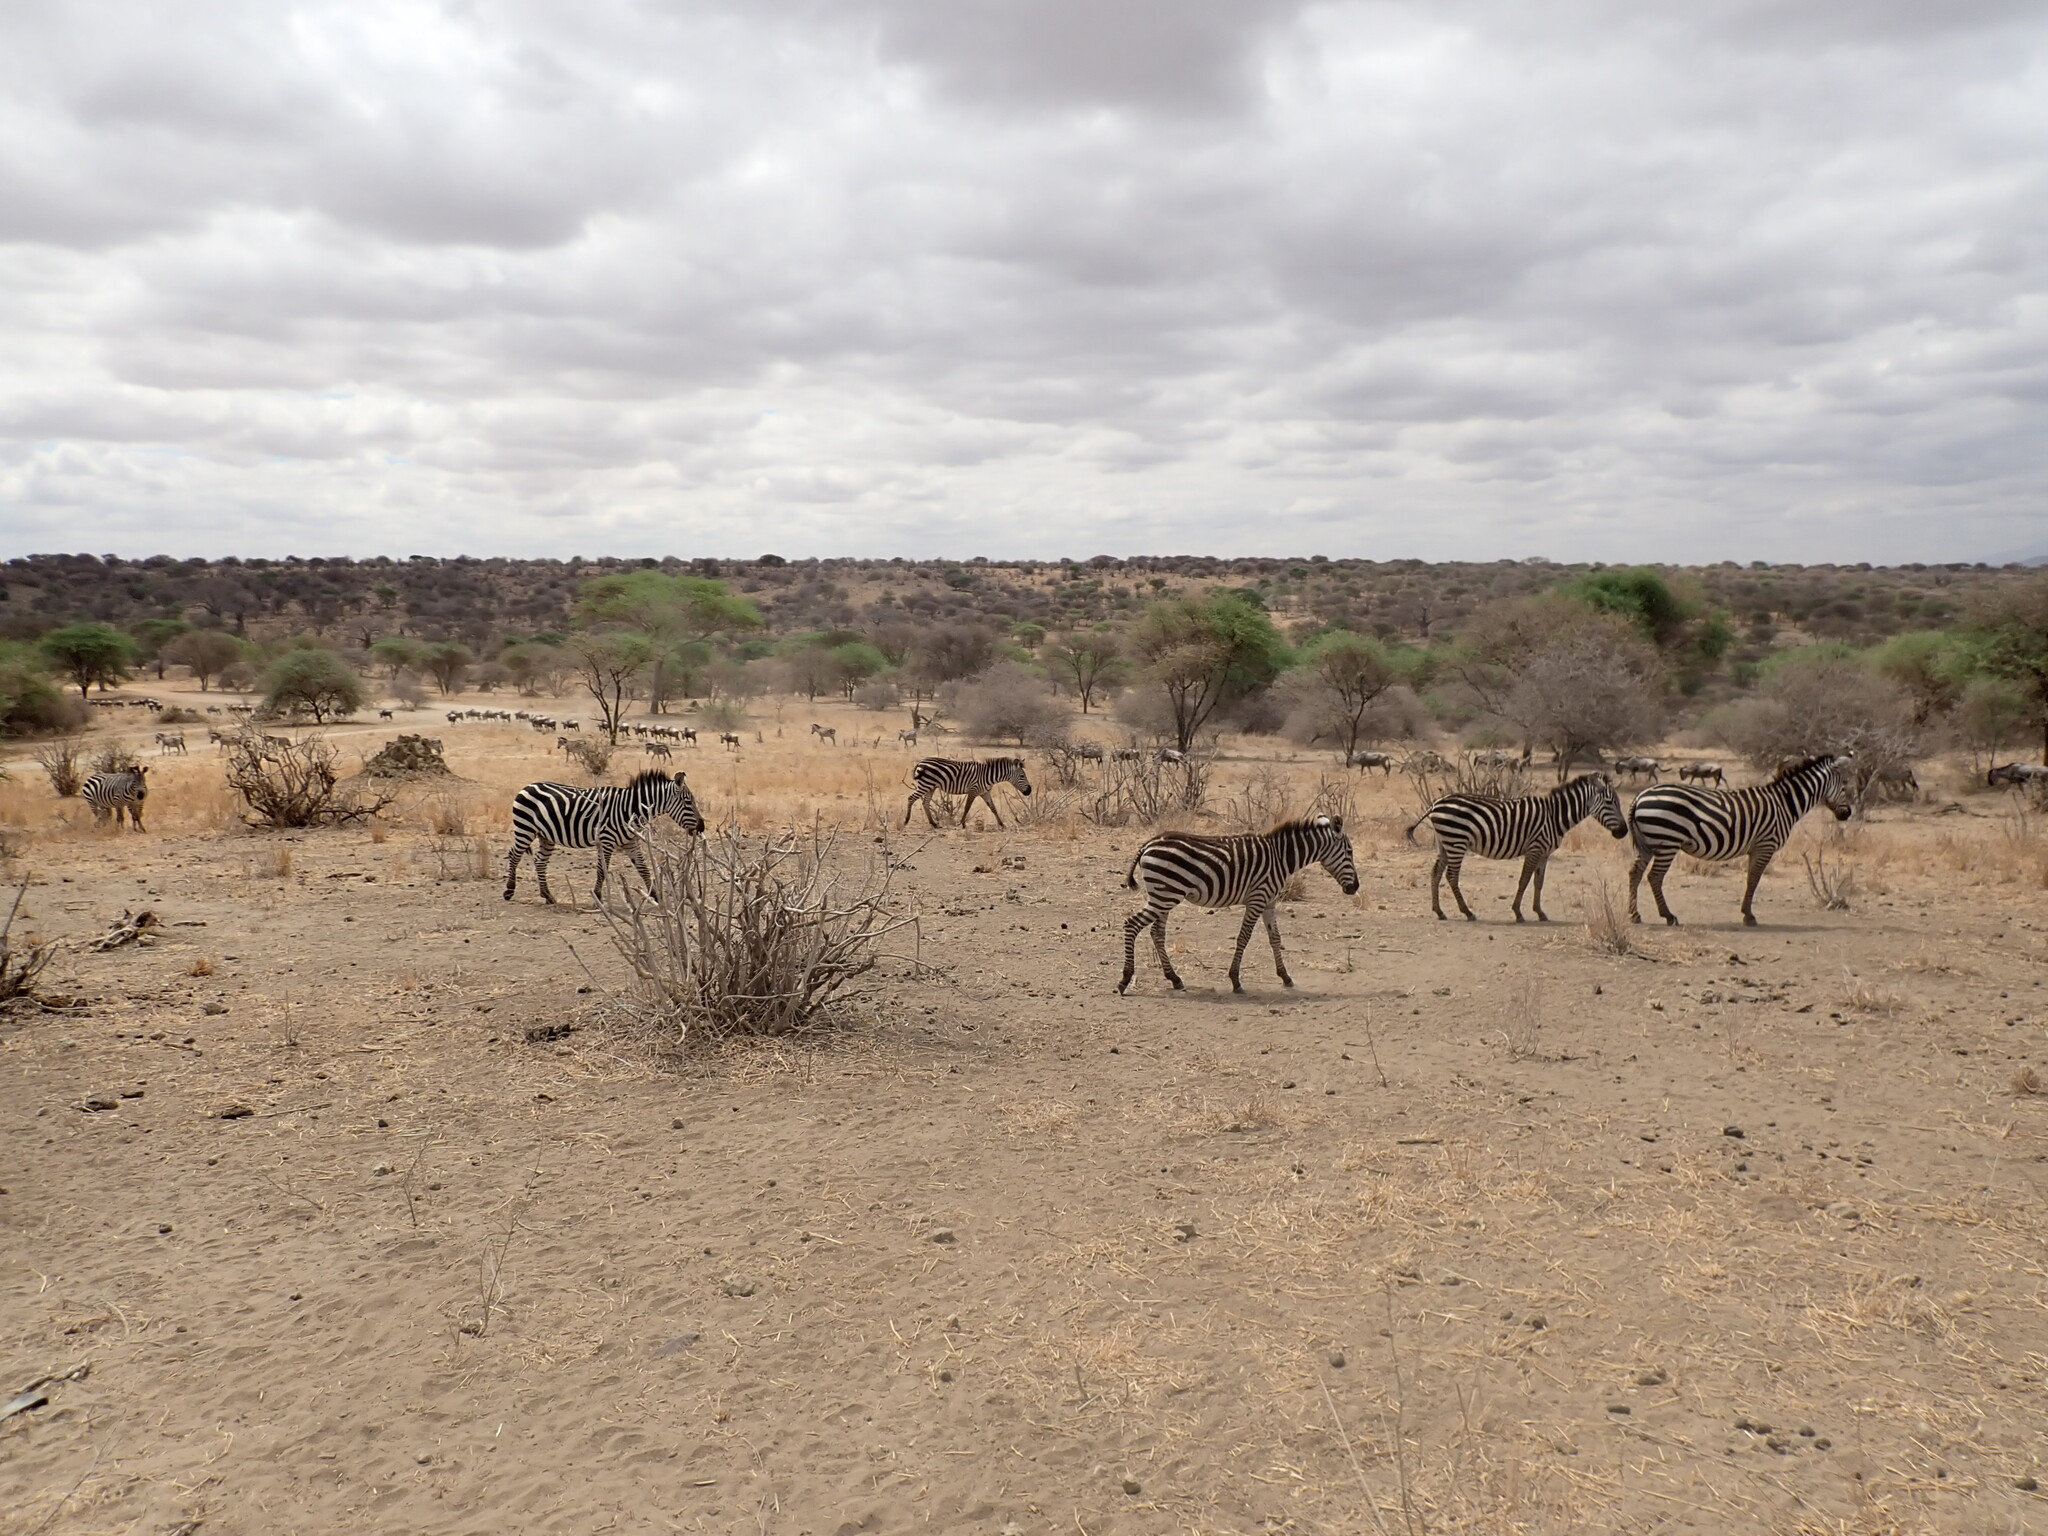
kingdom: Animalia
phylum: Chordata
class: Mammalia
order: Perissodactyla
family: Equidae
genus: Equus
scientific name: Equus quagga
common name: Plains zebra
